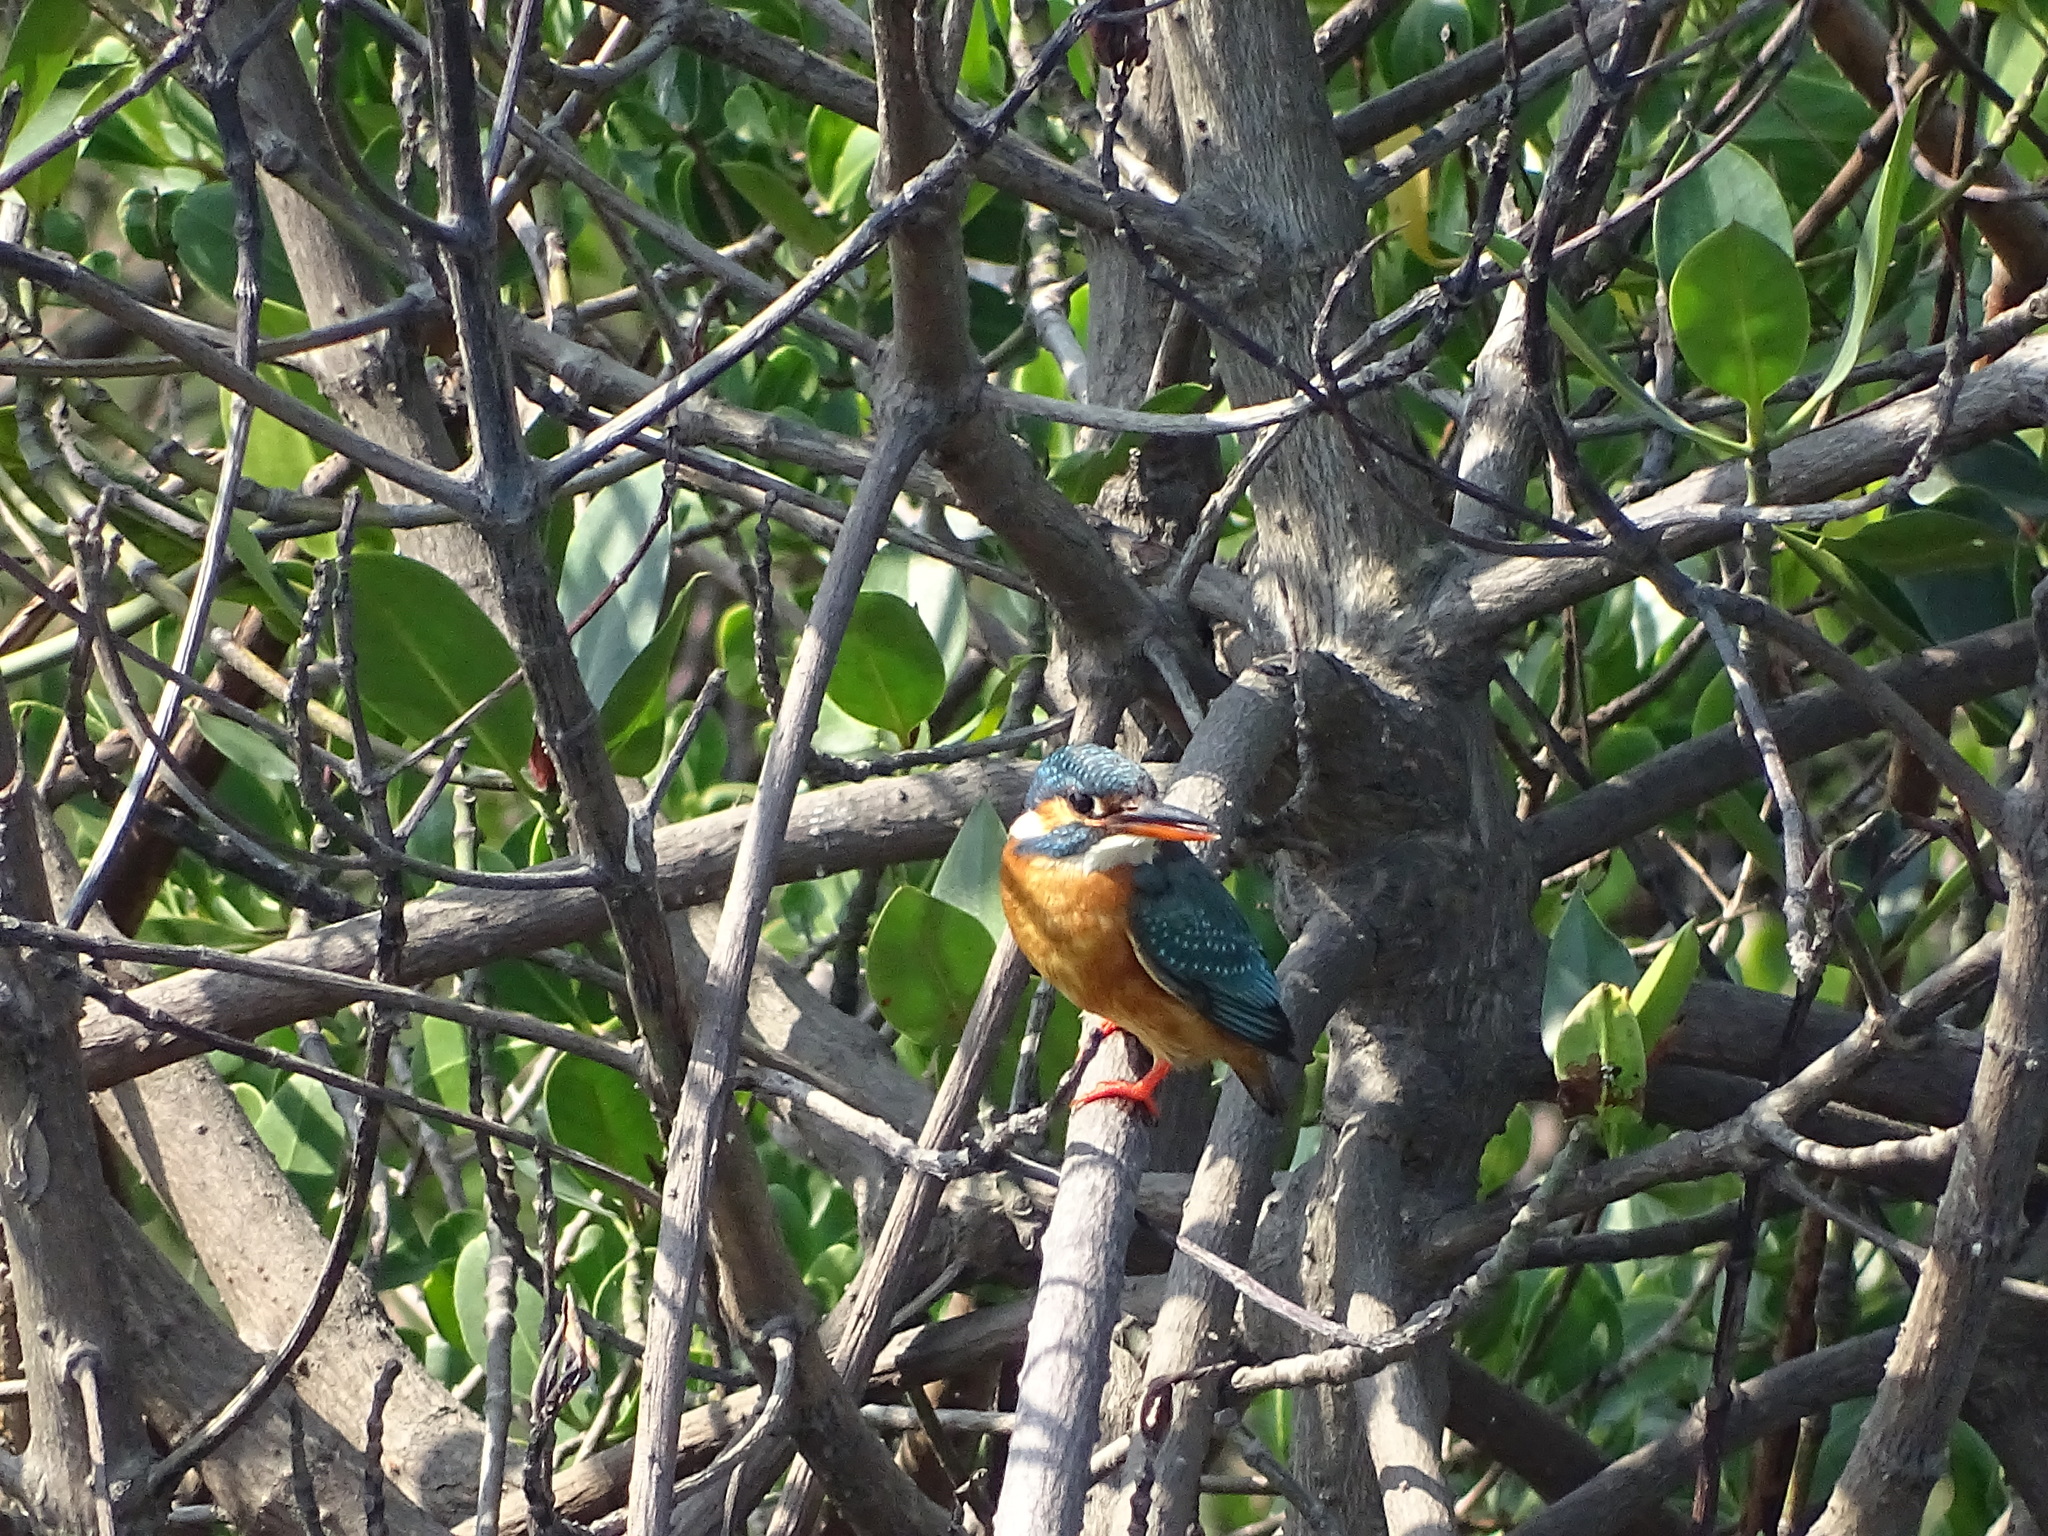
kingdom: Animalia
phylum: Chordata
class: Aves
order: Coraciiformes
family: Alcedinidae
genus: Alcedo
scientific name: Alcedo atthis
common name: Common kingfisher
